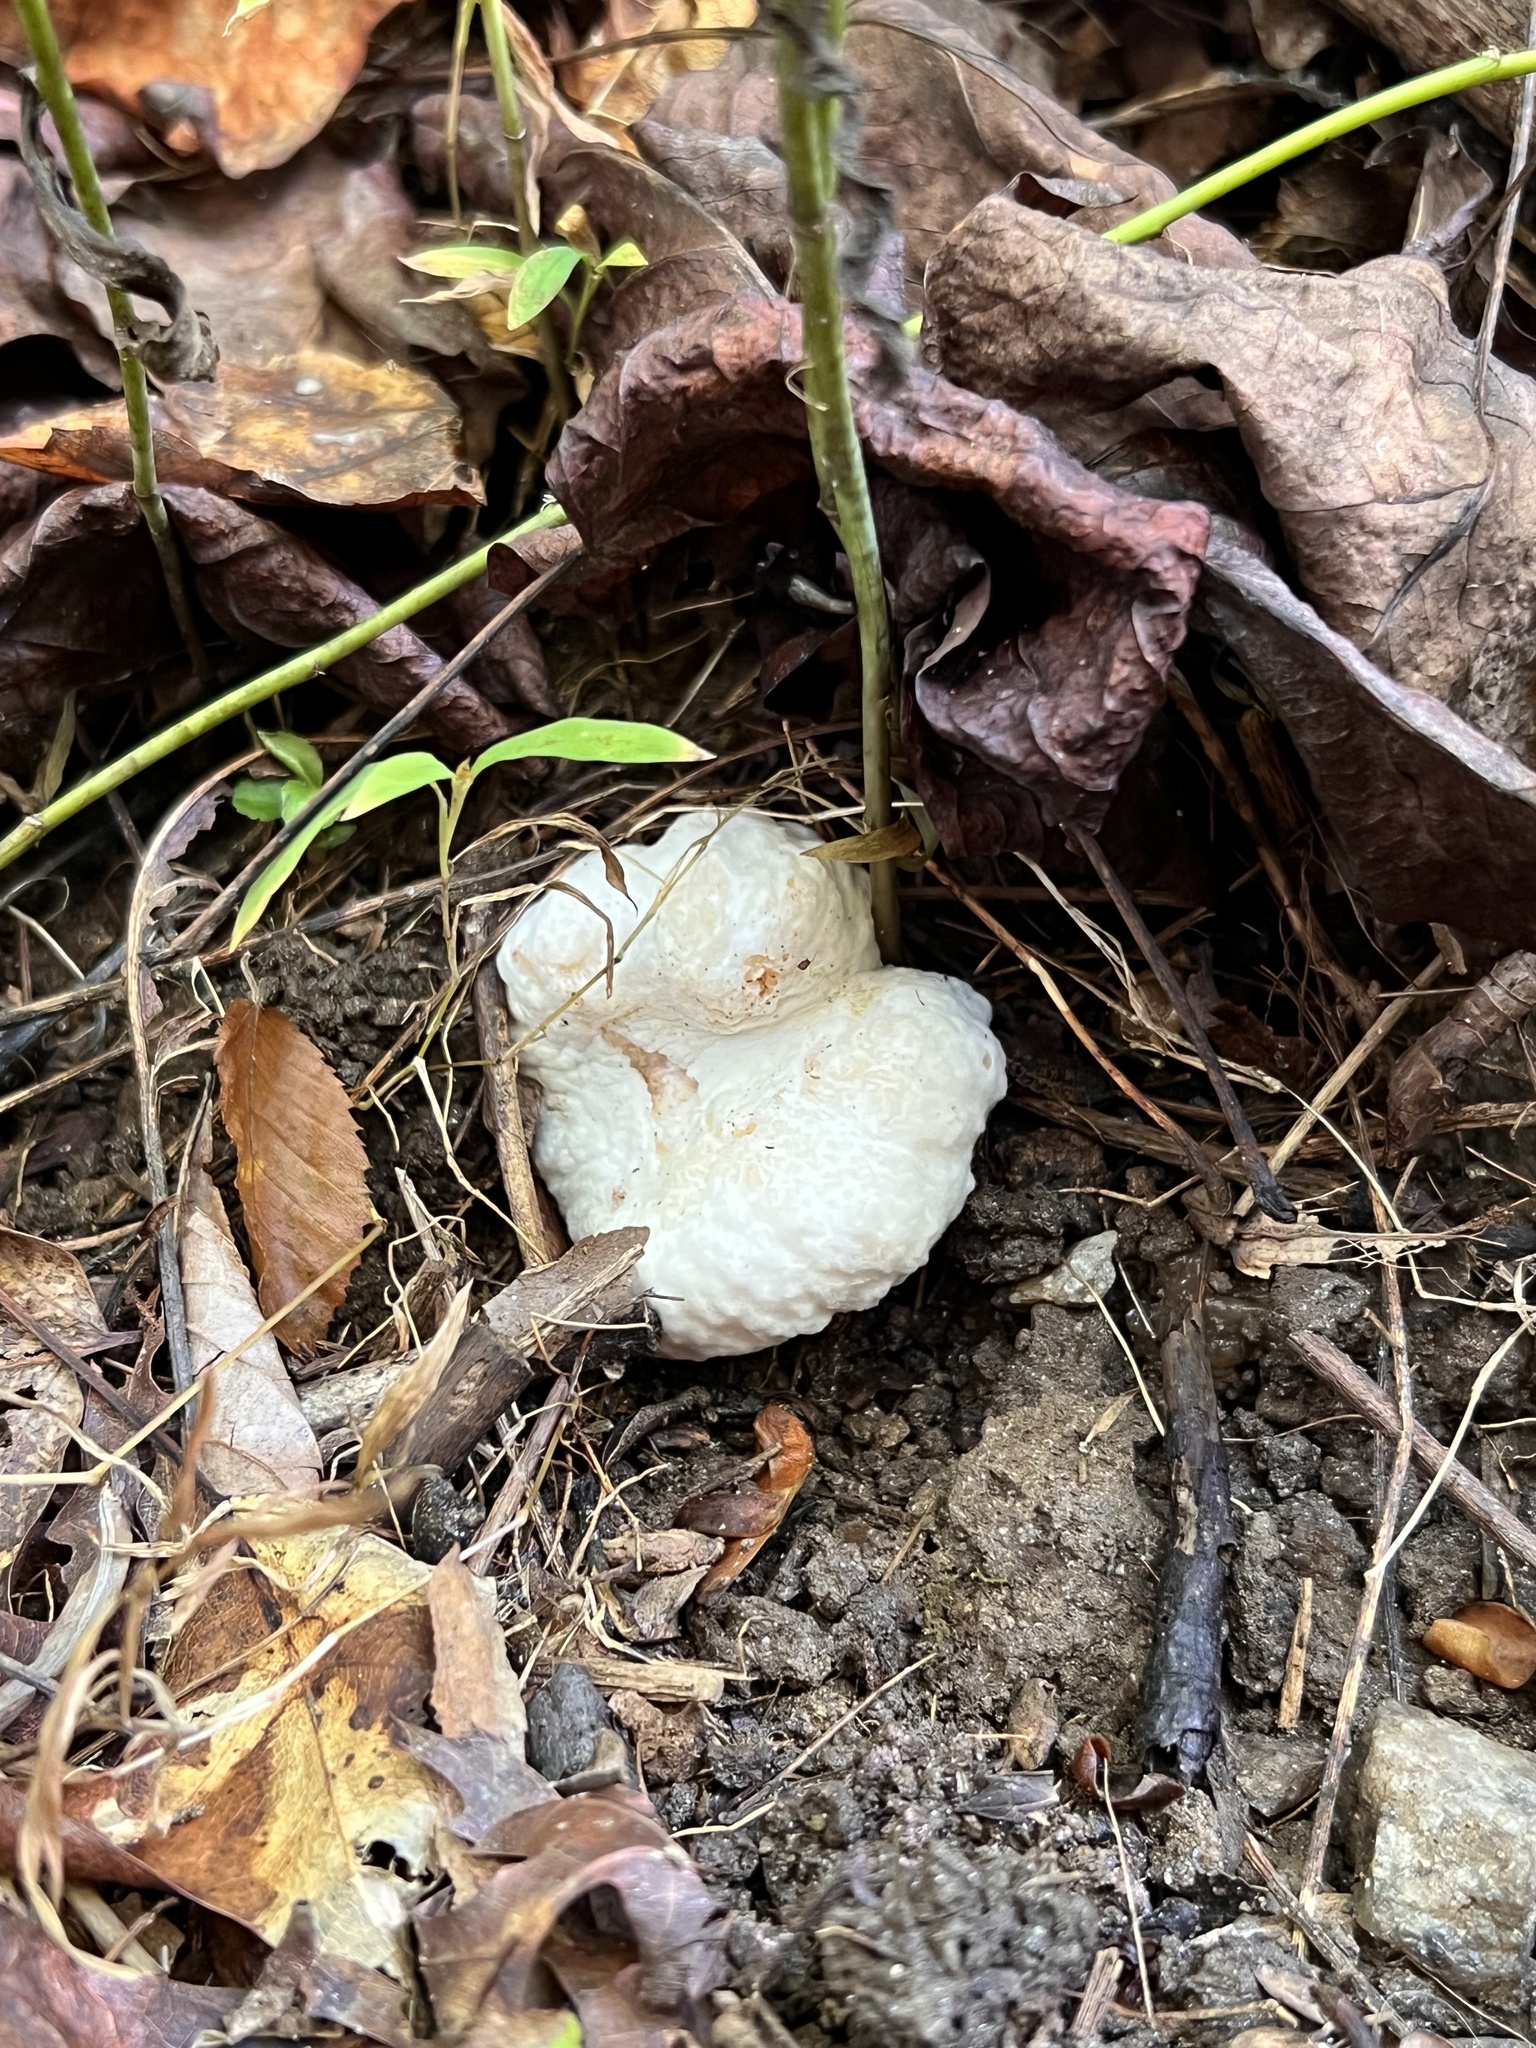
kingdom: Fungi
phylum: Basidiomycota
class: Agaricomycetes
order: Agaricales
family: Entolomataceae
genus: Entoloma
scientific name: Entoloma abortivum
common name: Aborted entoloma
